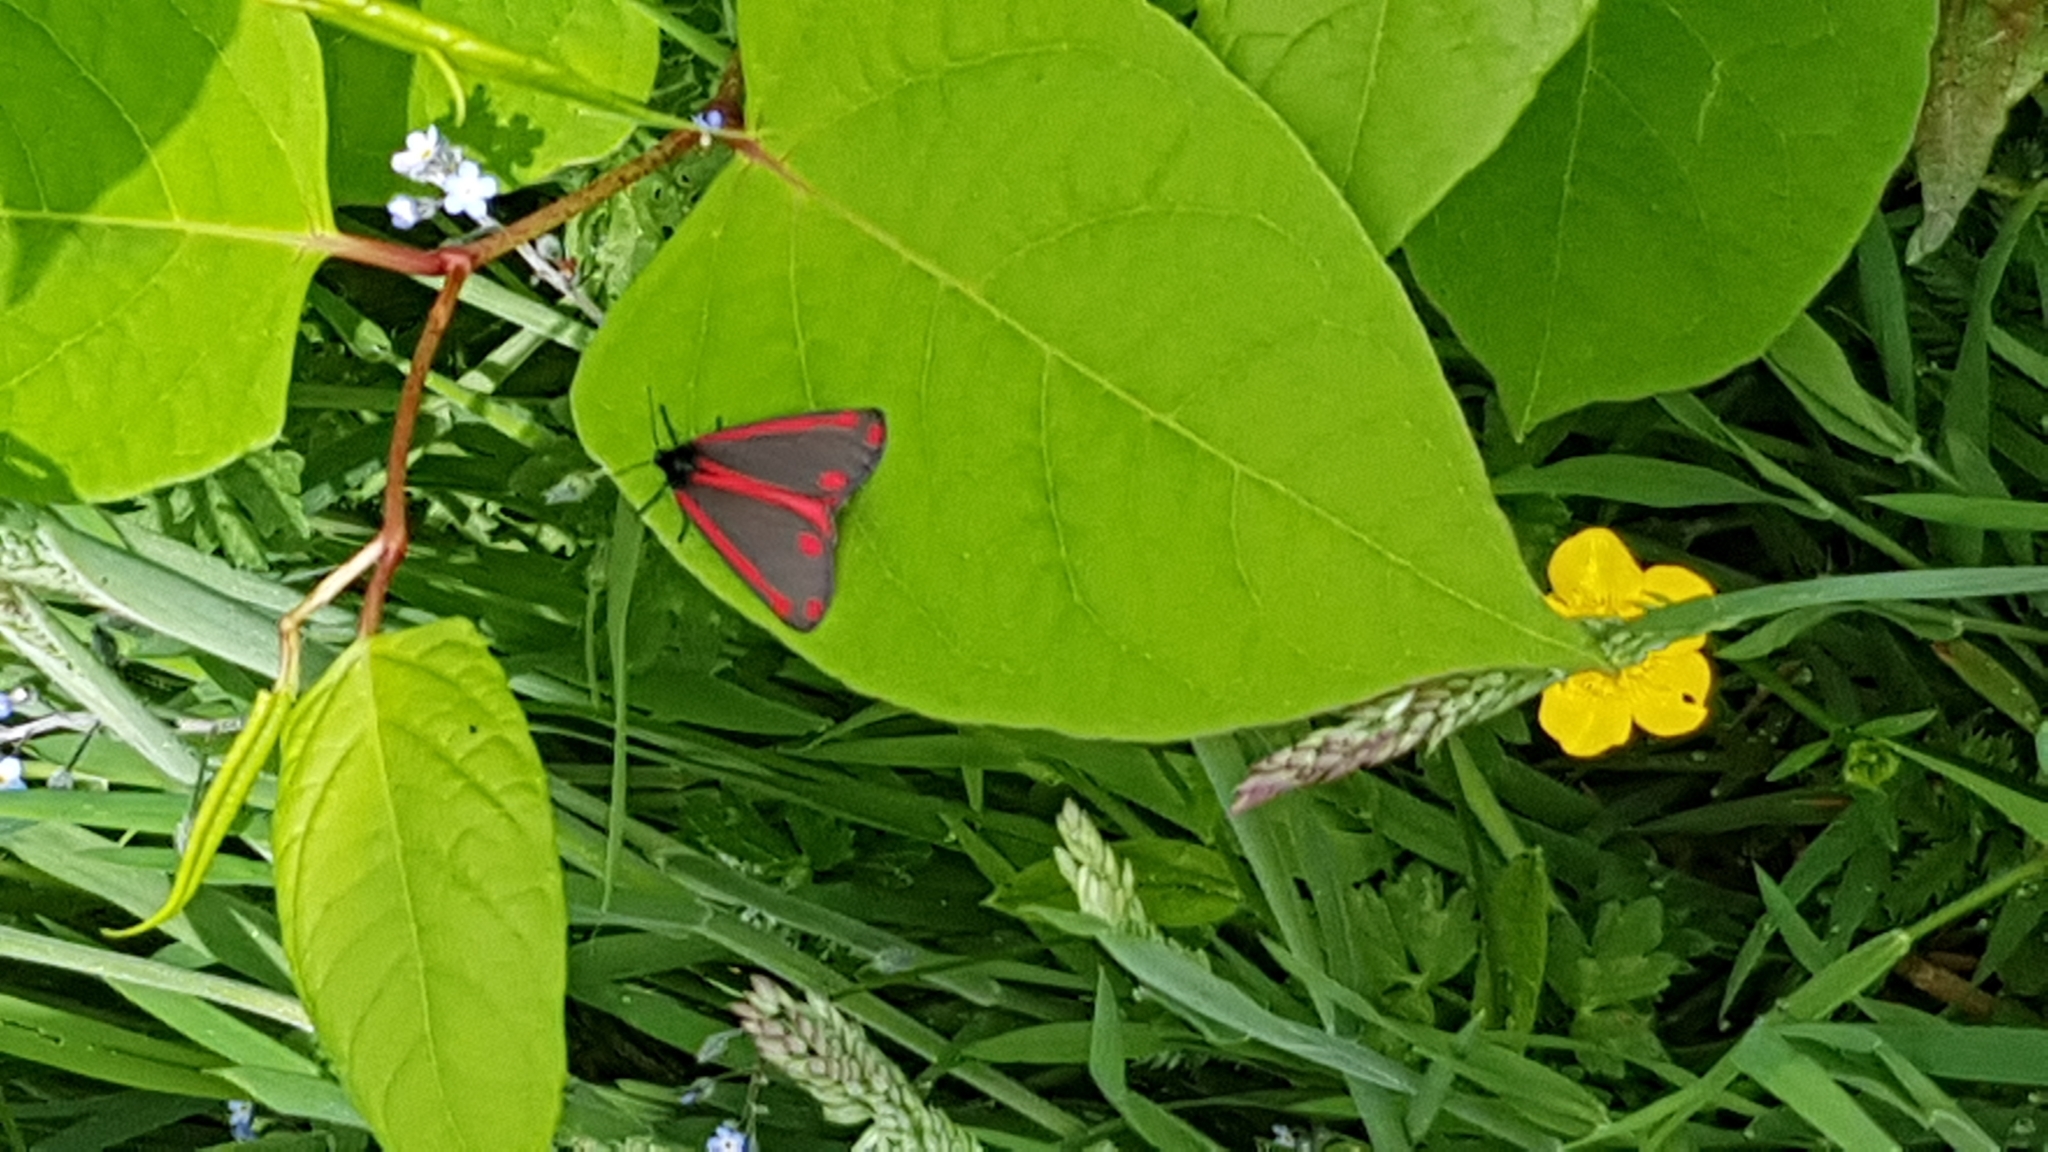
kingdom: Animalia
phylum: Arthropoda
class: Insecta
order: Lepidoptera
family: Erebidae
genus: Tyria
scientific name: Tyria jacobaeae
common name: Cinnabar
